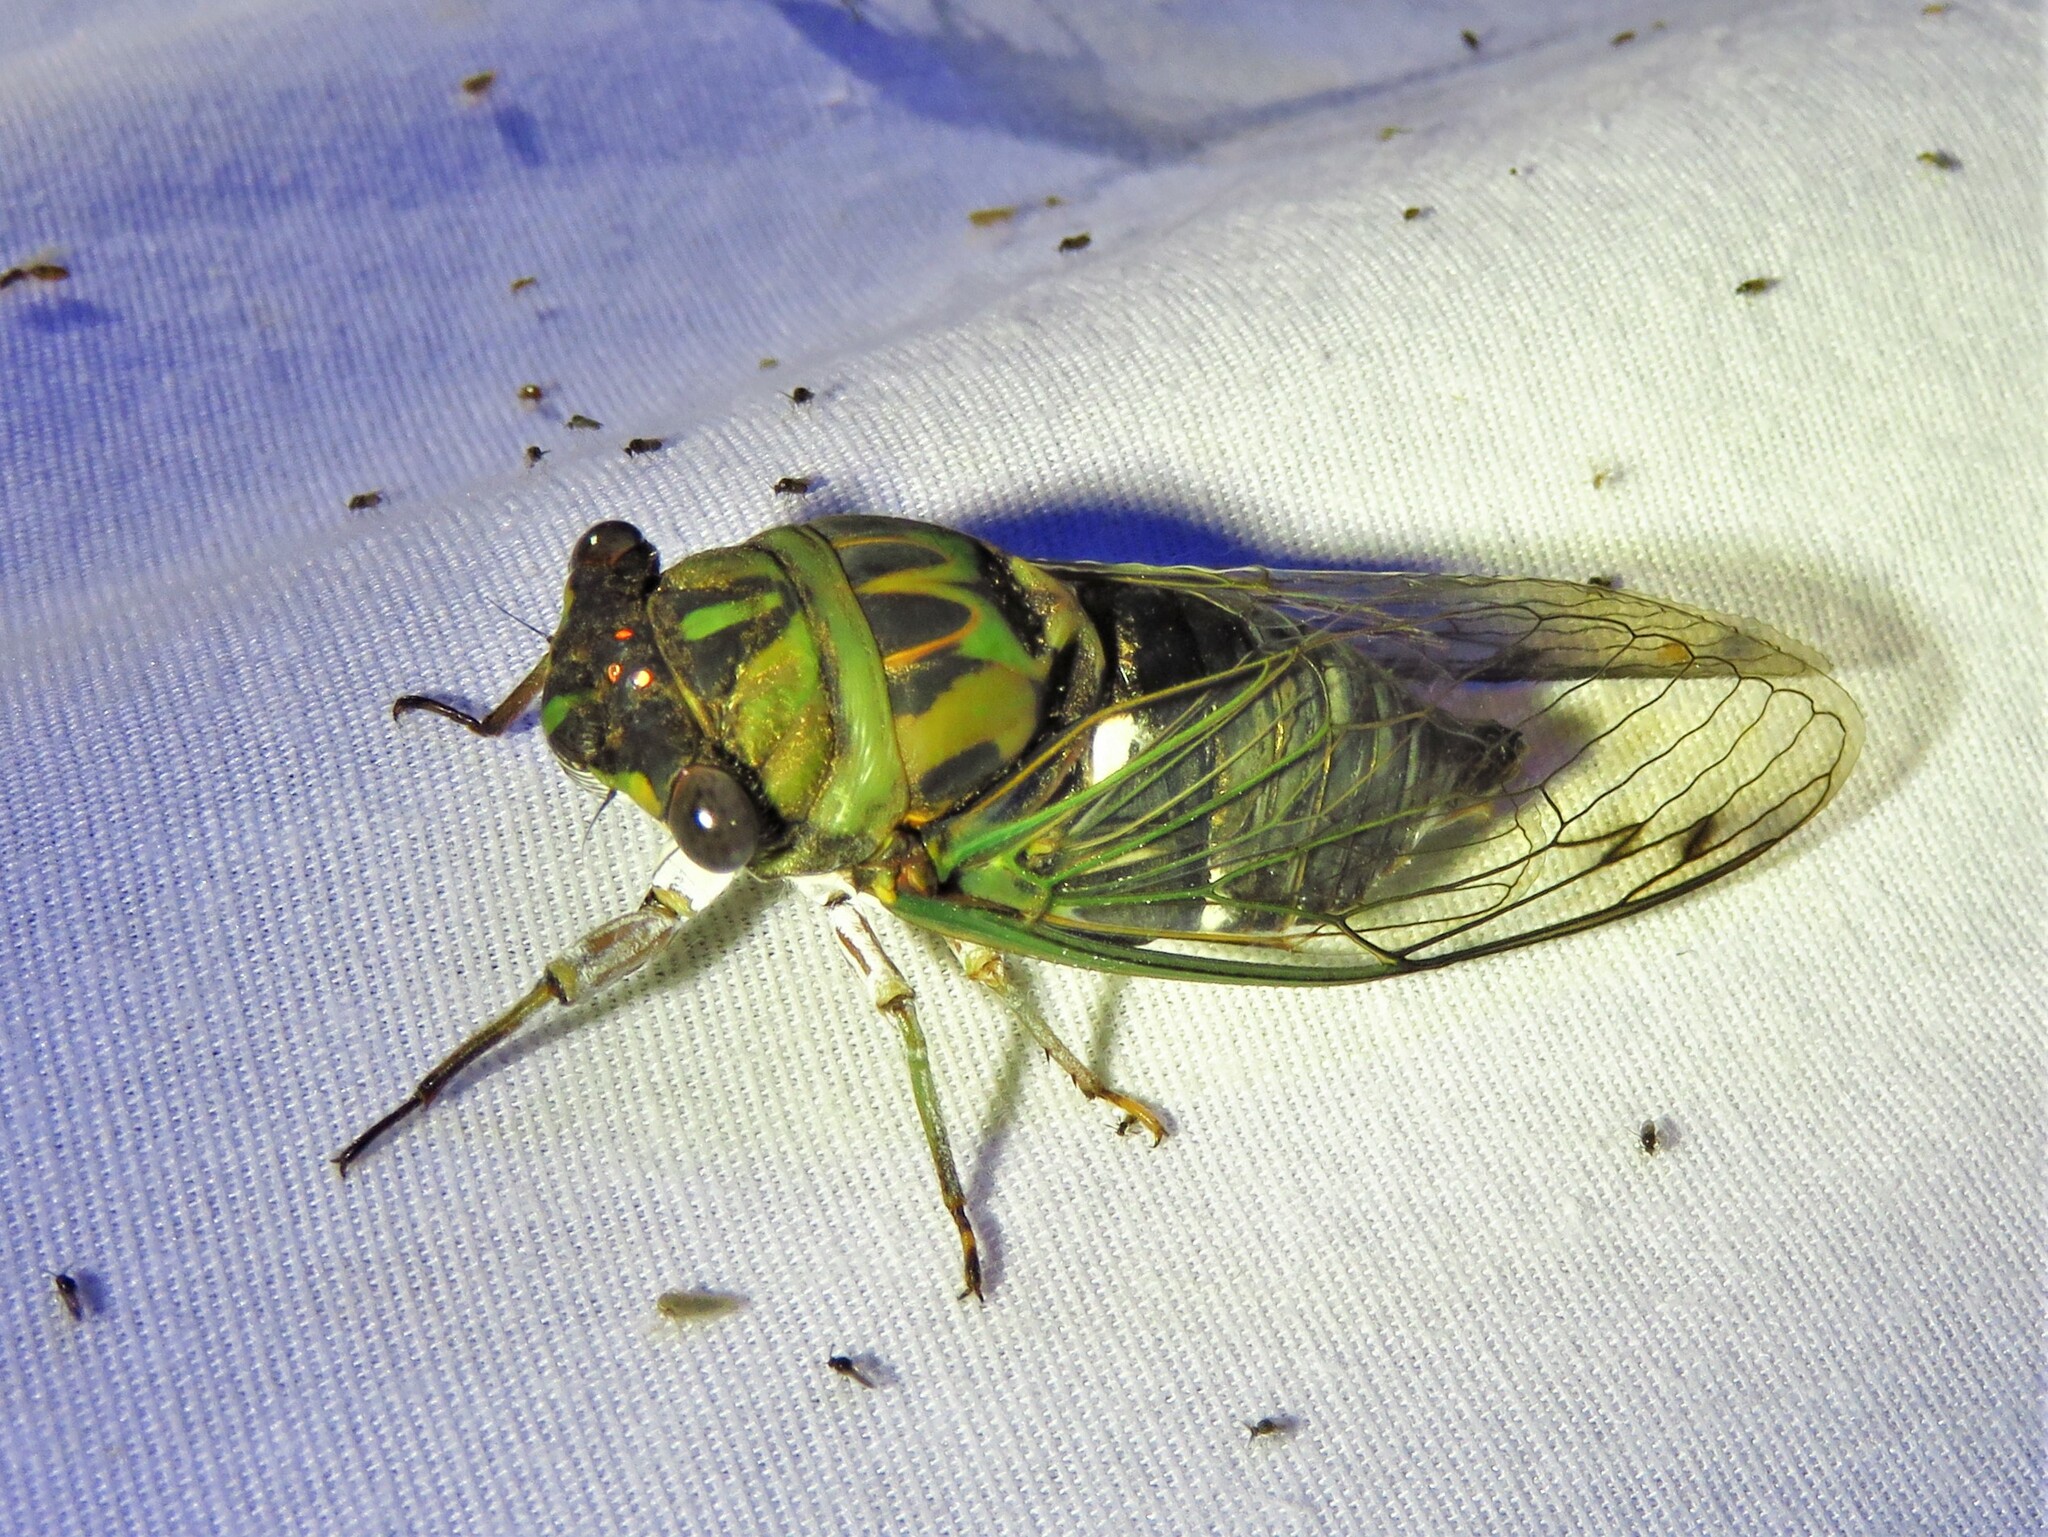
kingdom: Animalia
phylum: Arthropoda
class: Insecta
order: Hemiptera
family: Cicadidae
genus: Neotibicen
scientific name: Neotibicen pruinosus
